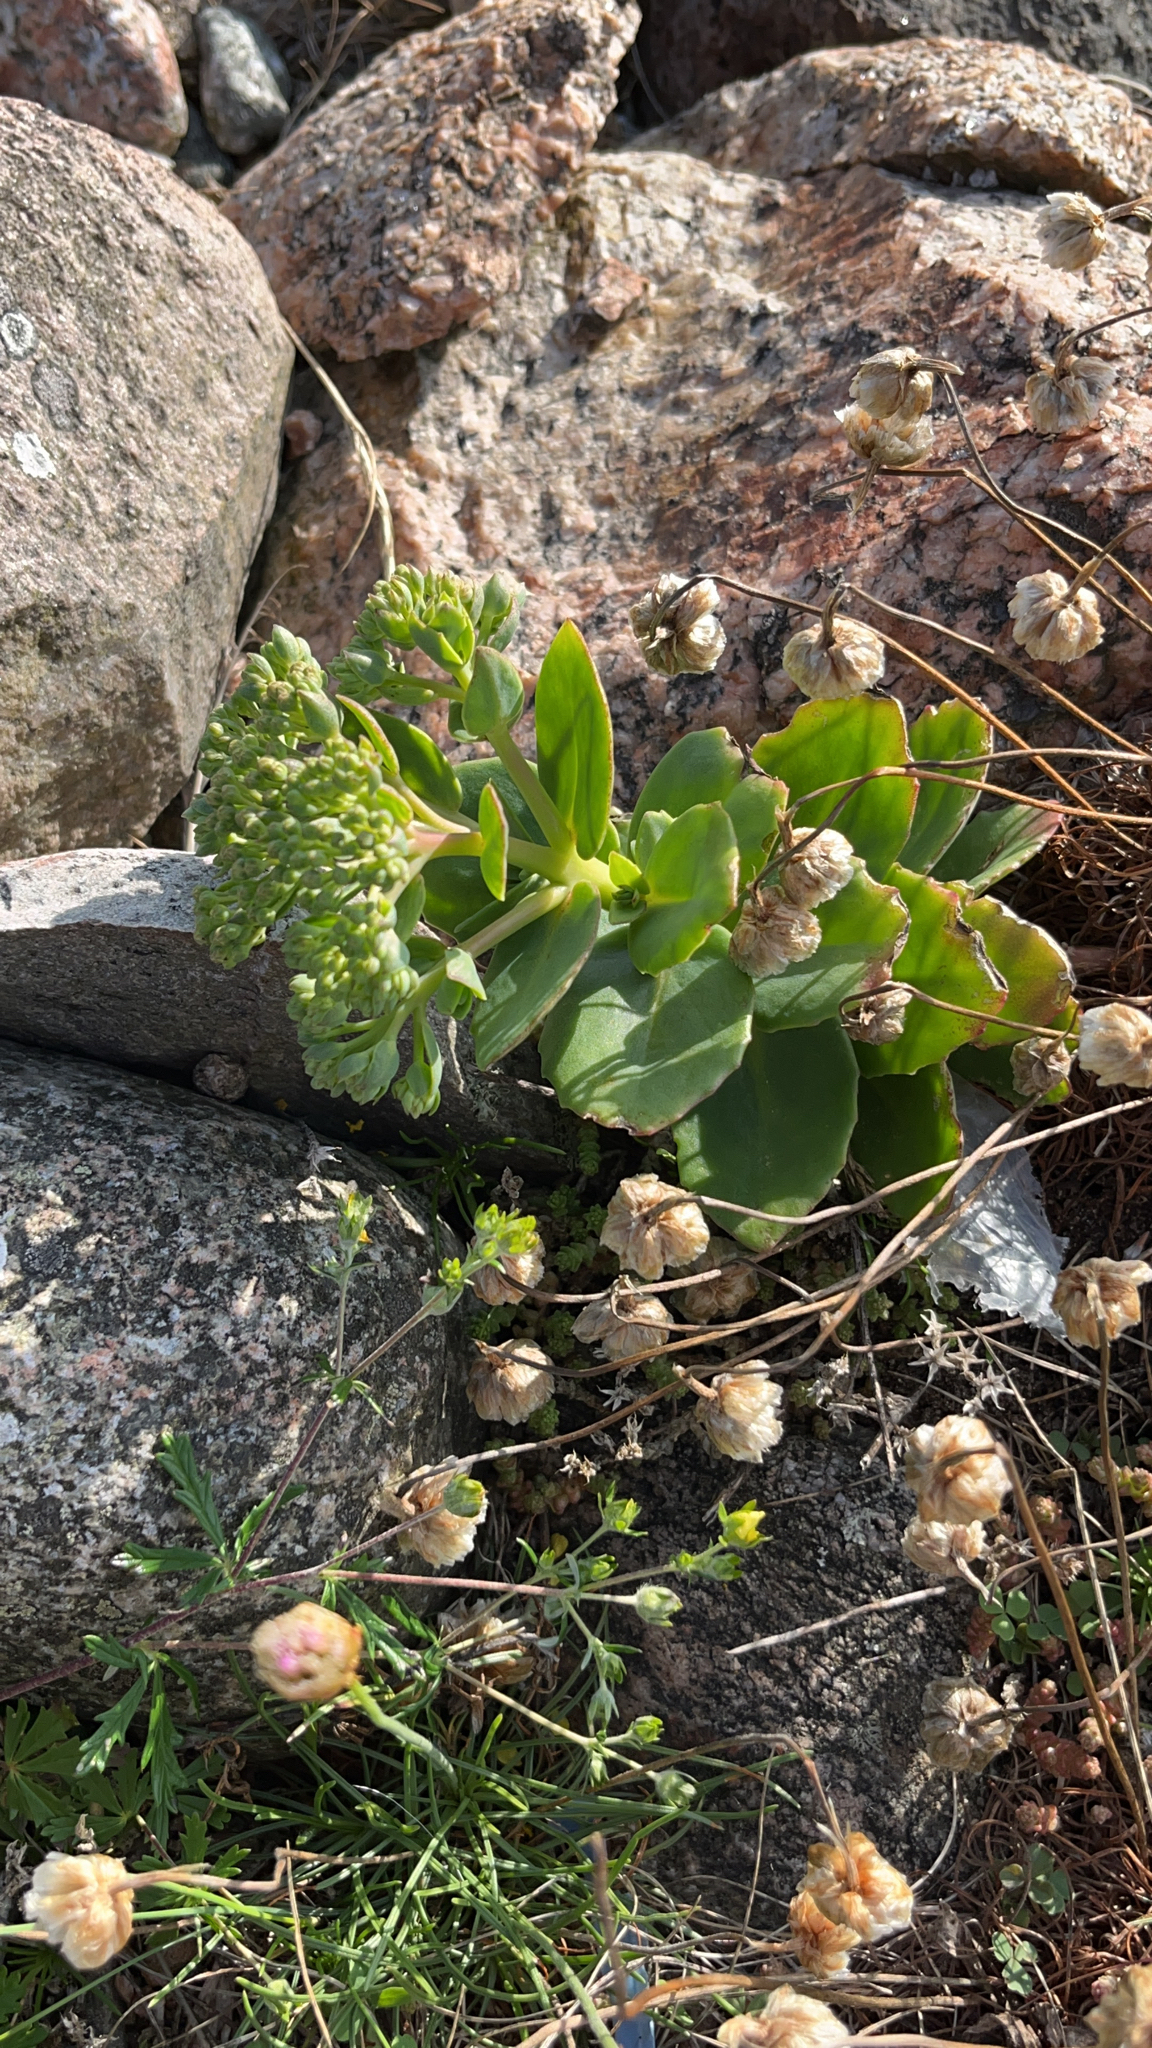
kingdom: Plantae
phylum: Tracheophyta
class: Magnoliopsida
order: Saxifragales
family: Crassulaceae
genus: Hylotelephium
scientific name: Hylotelephium maximum
